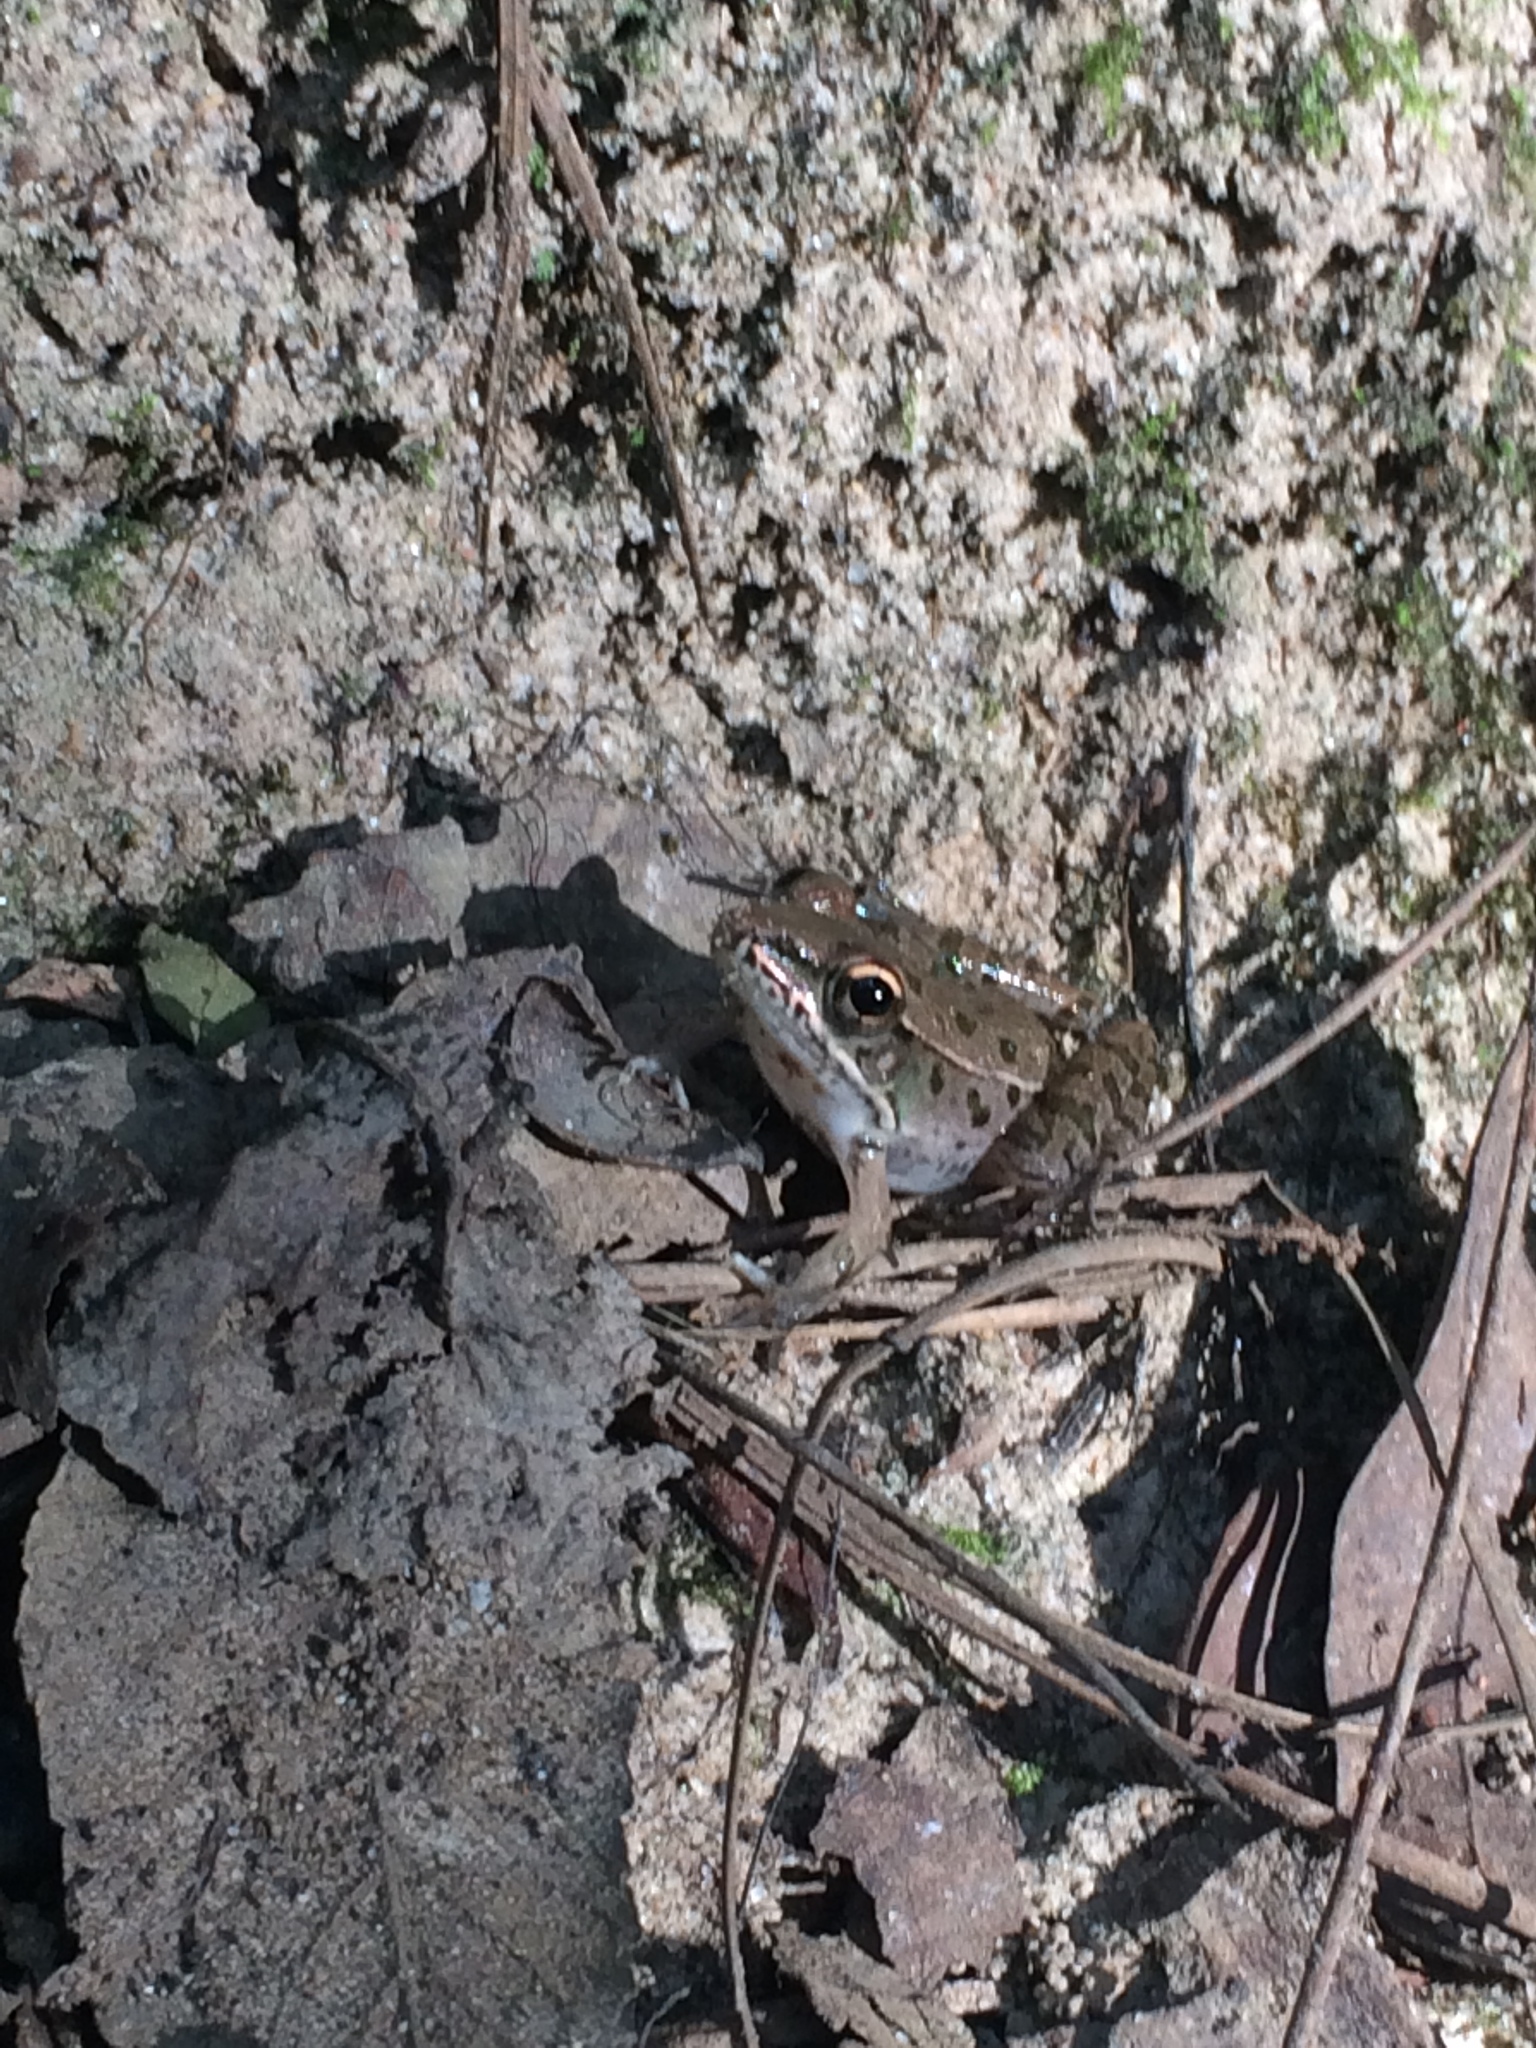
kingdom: Animalia
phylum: Chordata
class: Amphibia
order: Anura
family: Ranidae
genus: Lithobates
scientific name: Lithobates sphenocephalus
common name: Southern leopard frog
